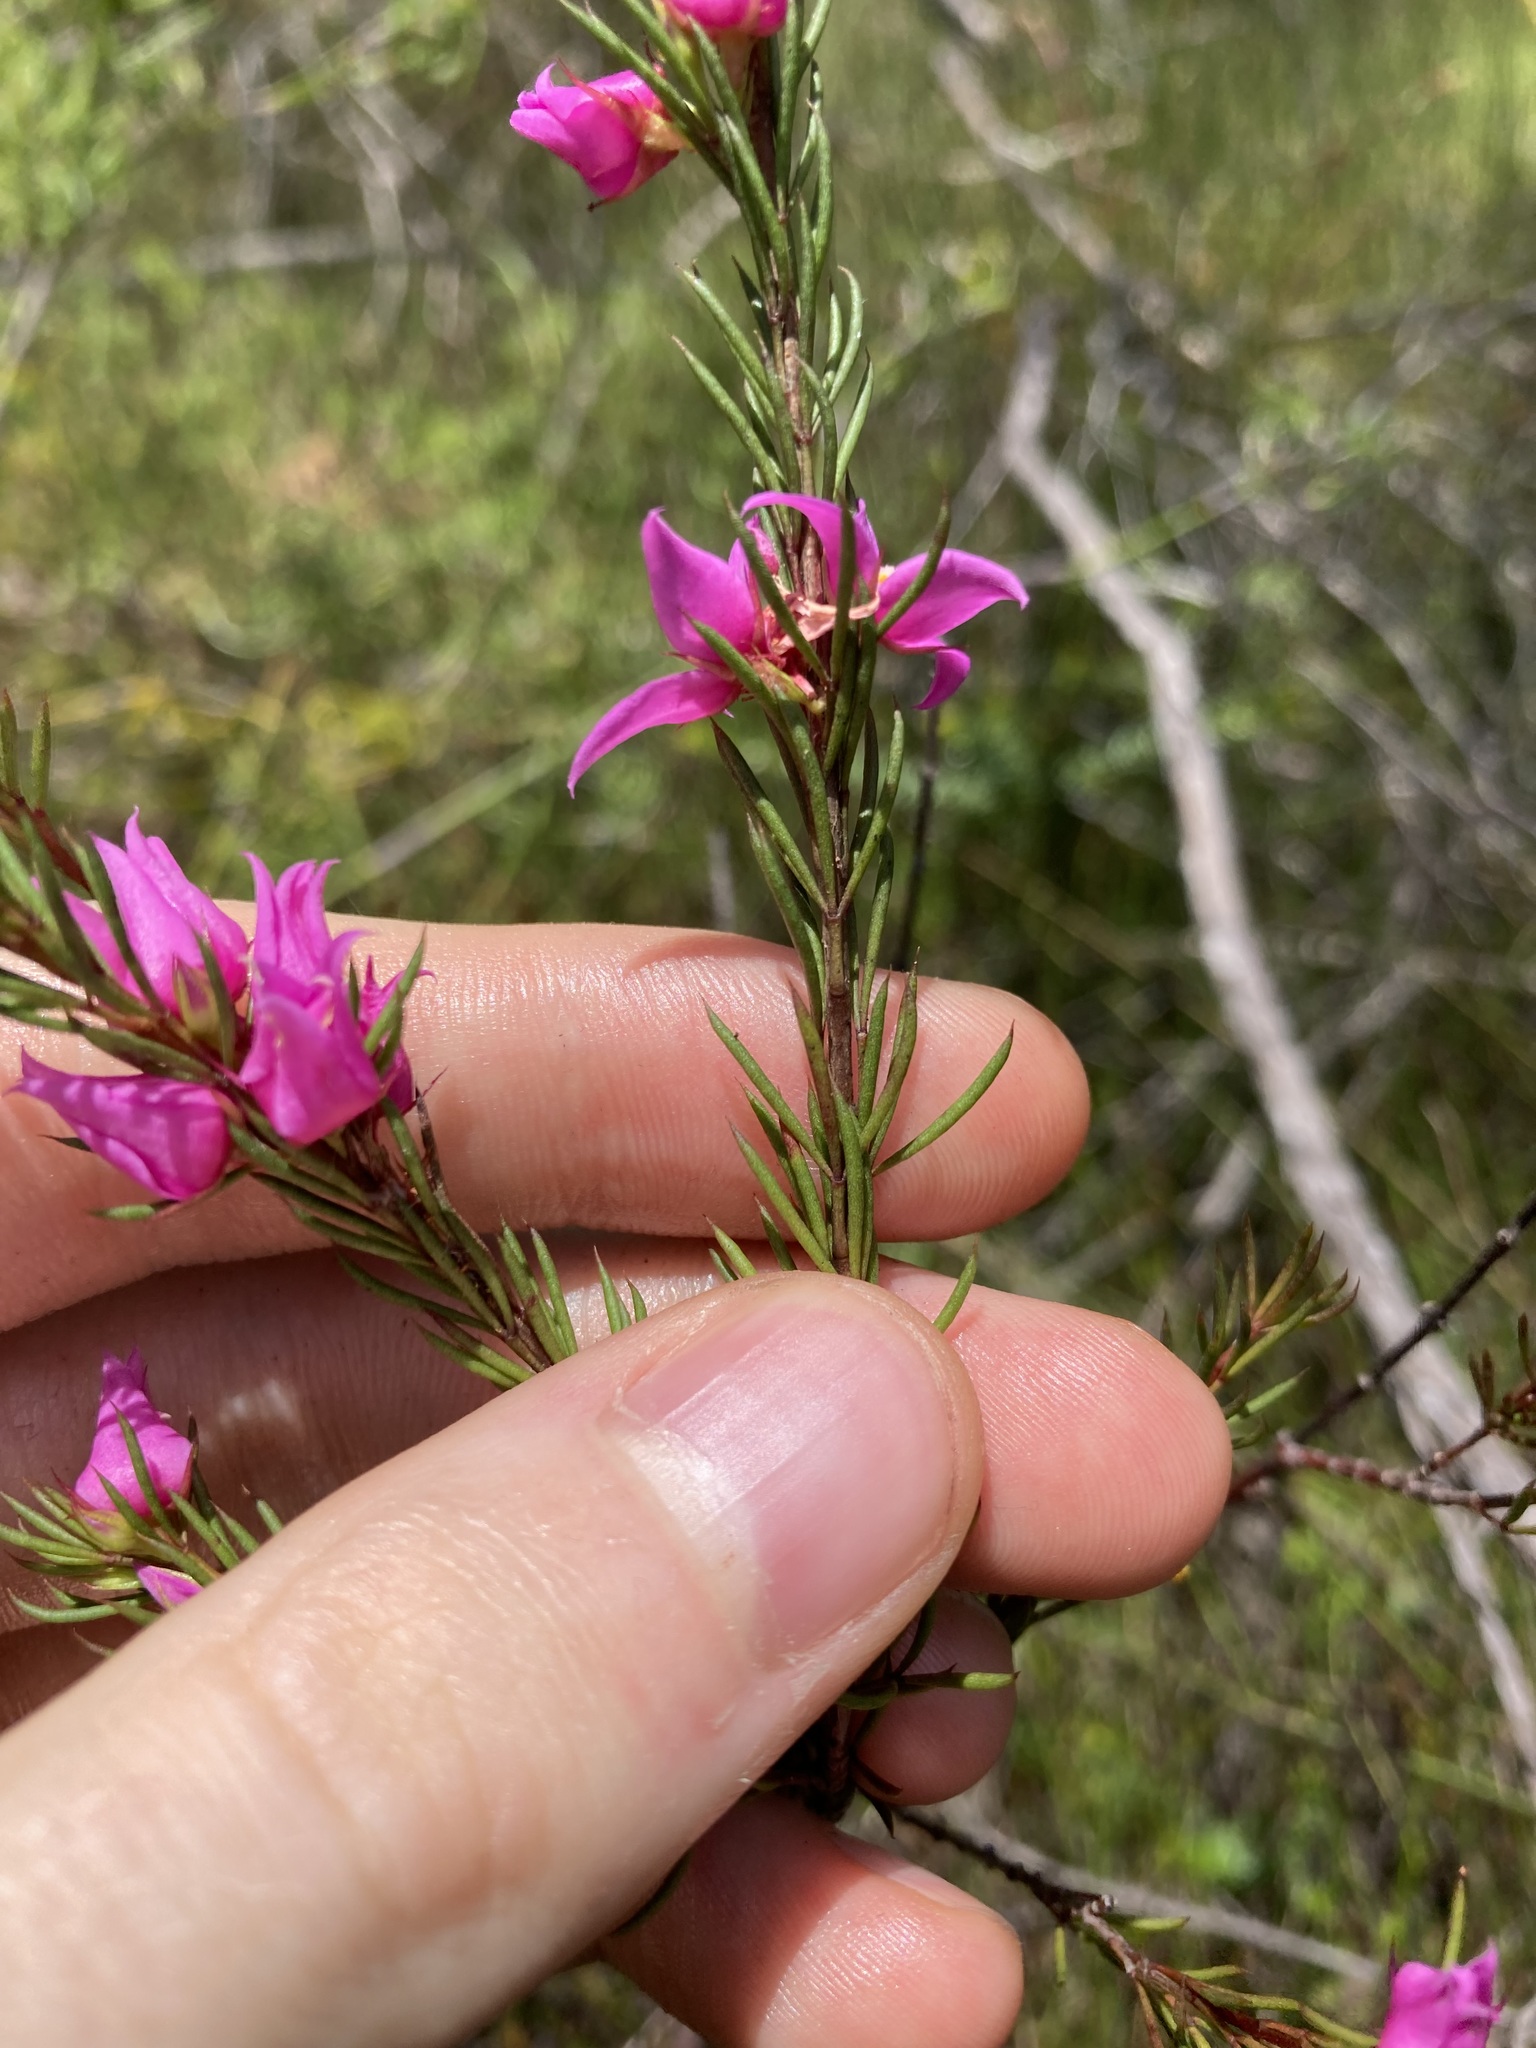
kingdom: Plantae
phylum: Tracheophyta
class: Magnoliopsida
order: Sapindales
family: Rutaceae
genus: Boronia
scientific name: Boronia falcifolia
